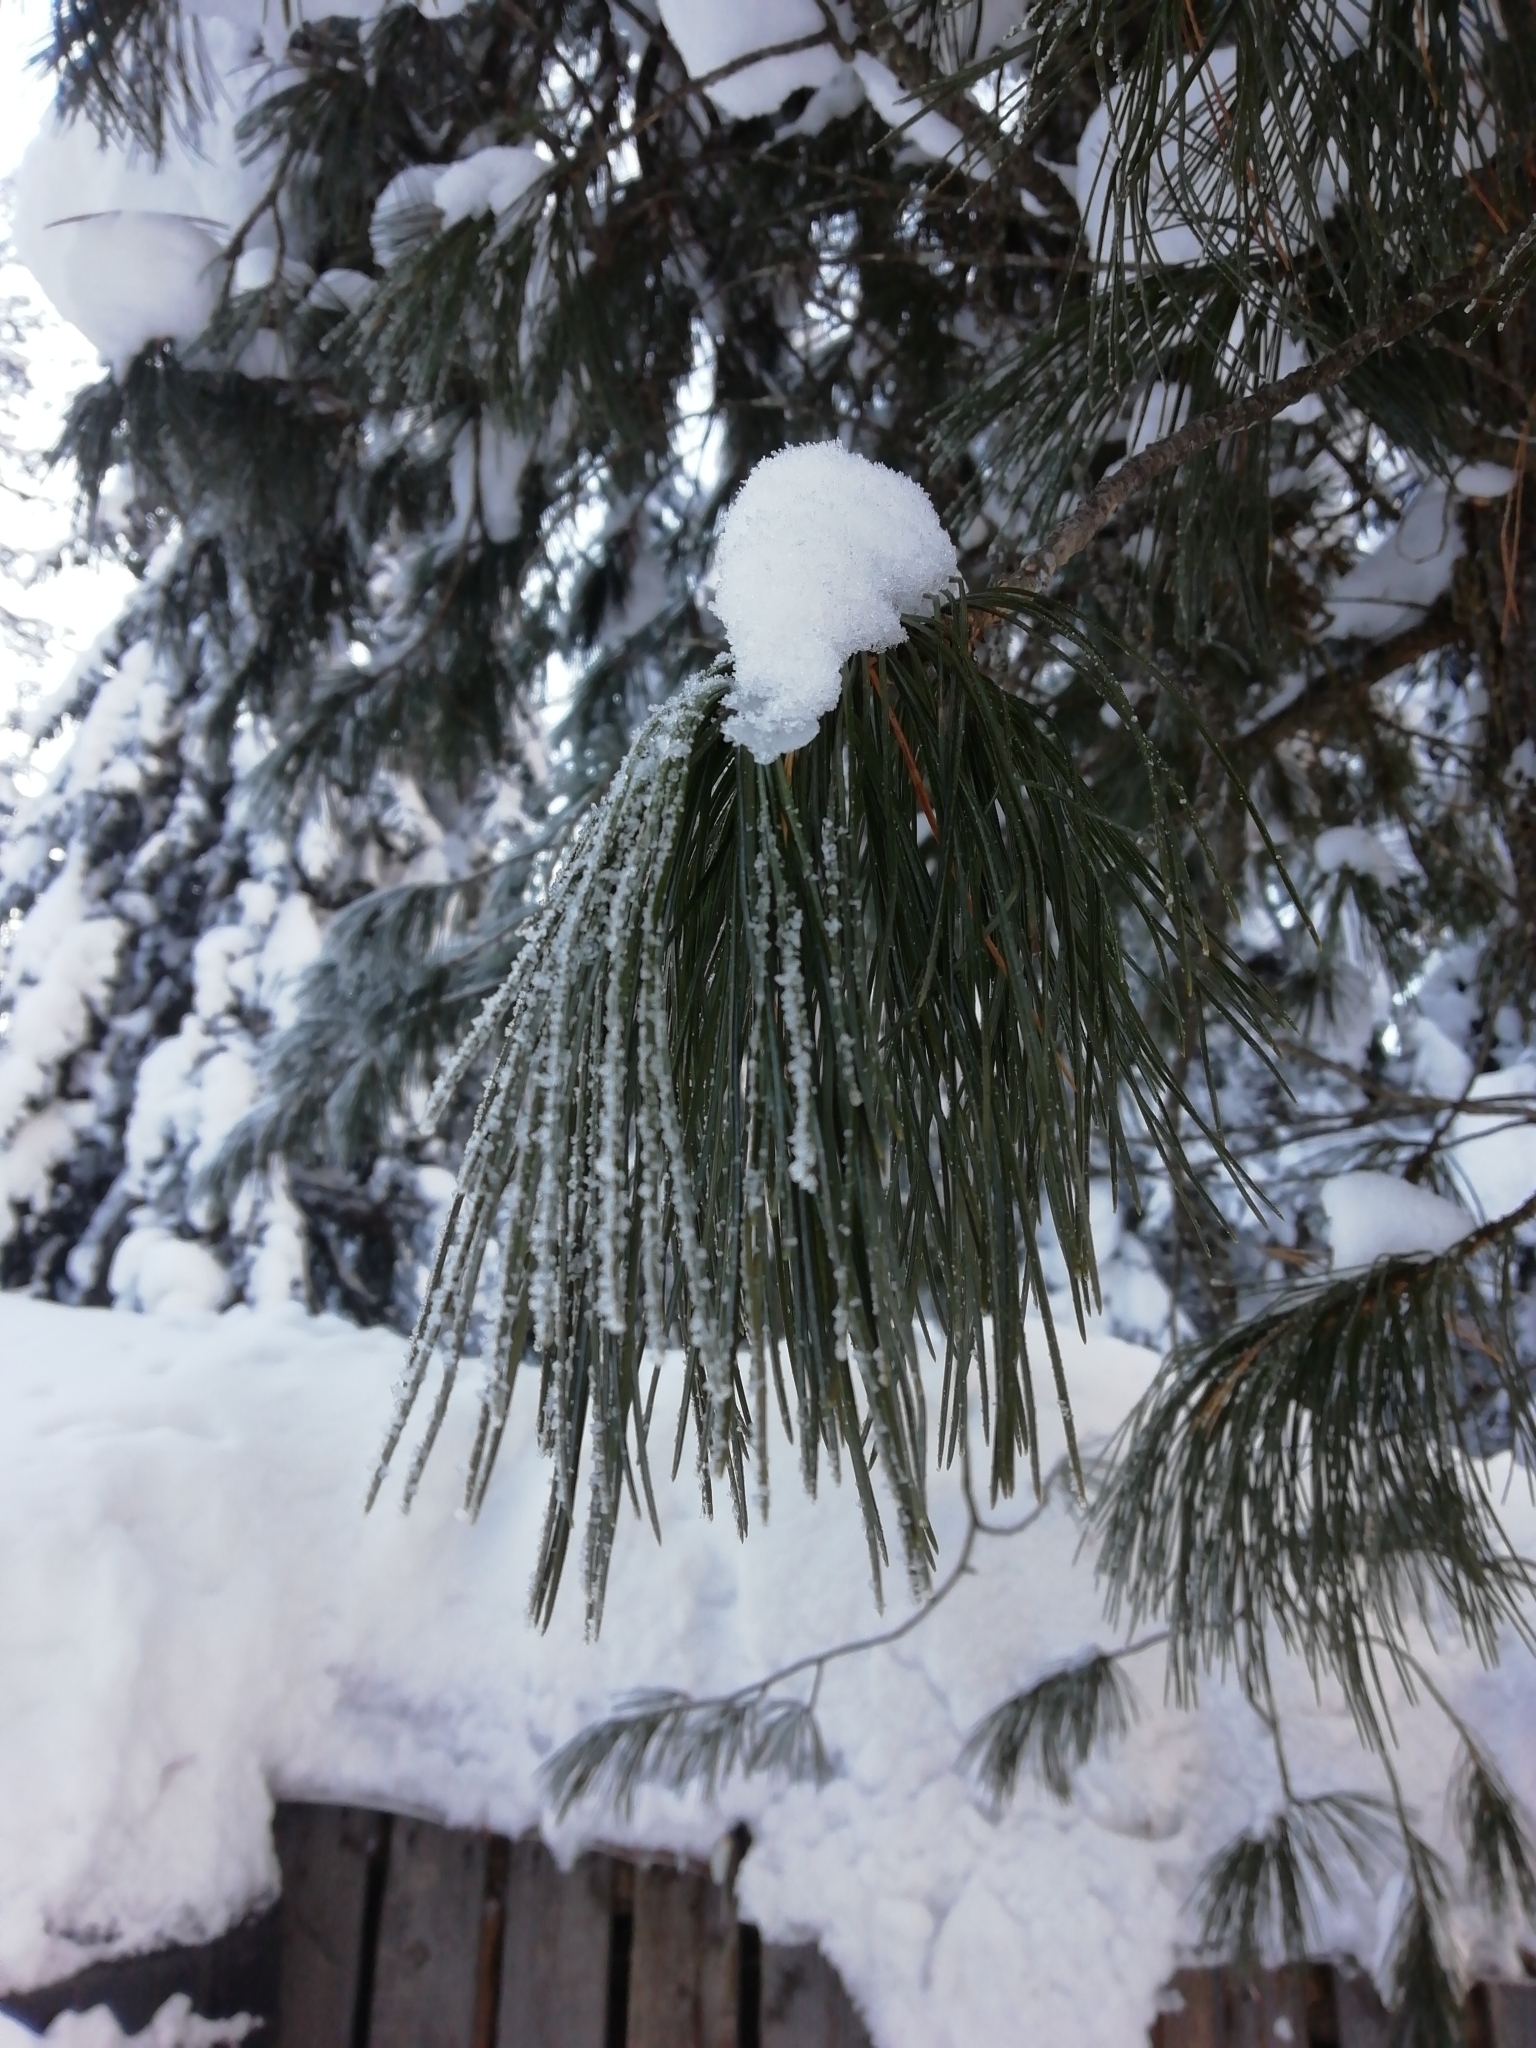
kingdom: Plantae
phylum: Tracheophyta
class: Pinopsida
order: Pinales
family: Pinaceae
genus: Pinus
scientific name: Pinus sibirica
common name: Siberian pine
